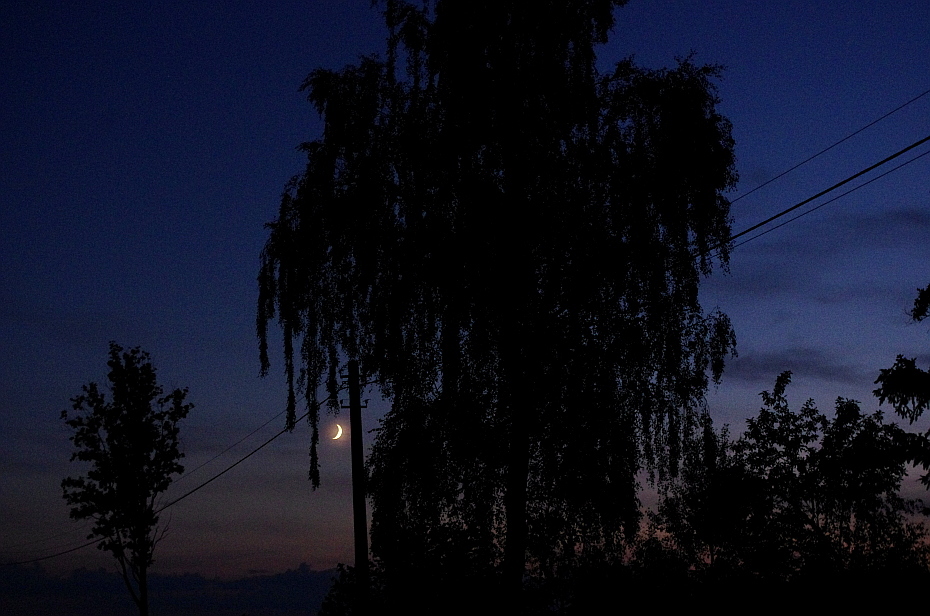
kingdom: Plantae
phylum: Tracheophyta
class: Magnoliopsida
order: Fagales
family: Betulaceae
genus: Betula
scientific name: Betula pendula
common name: Silver birch
